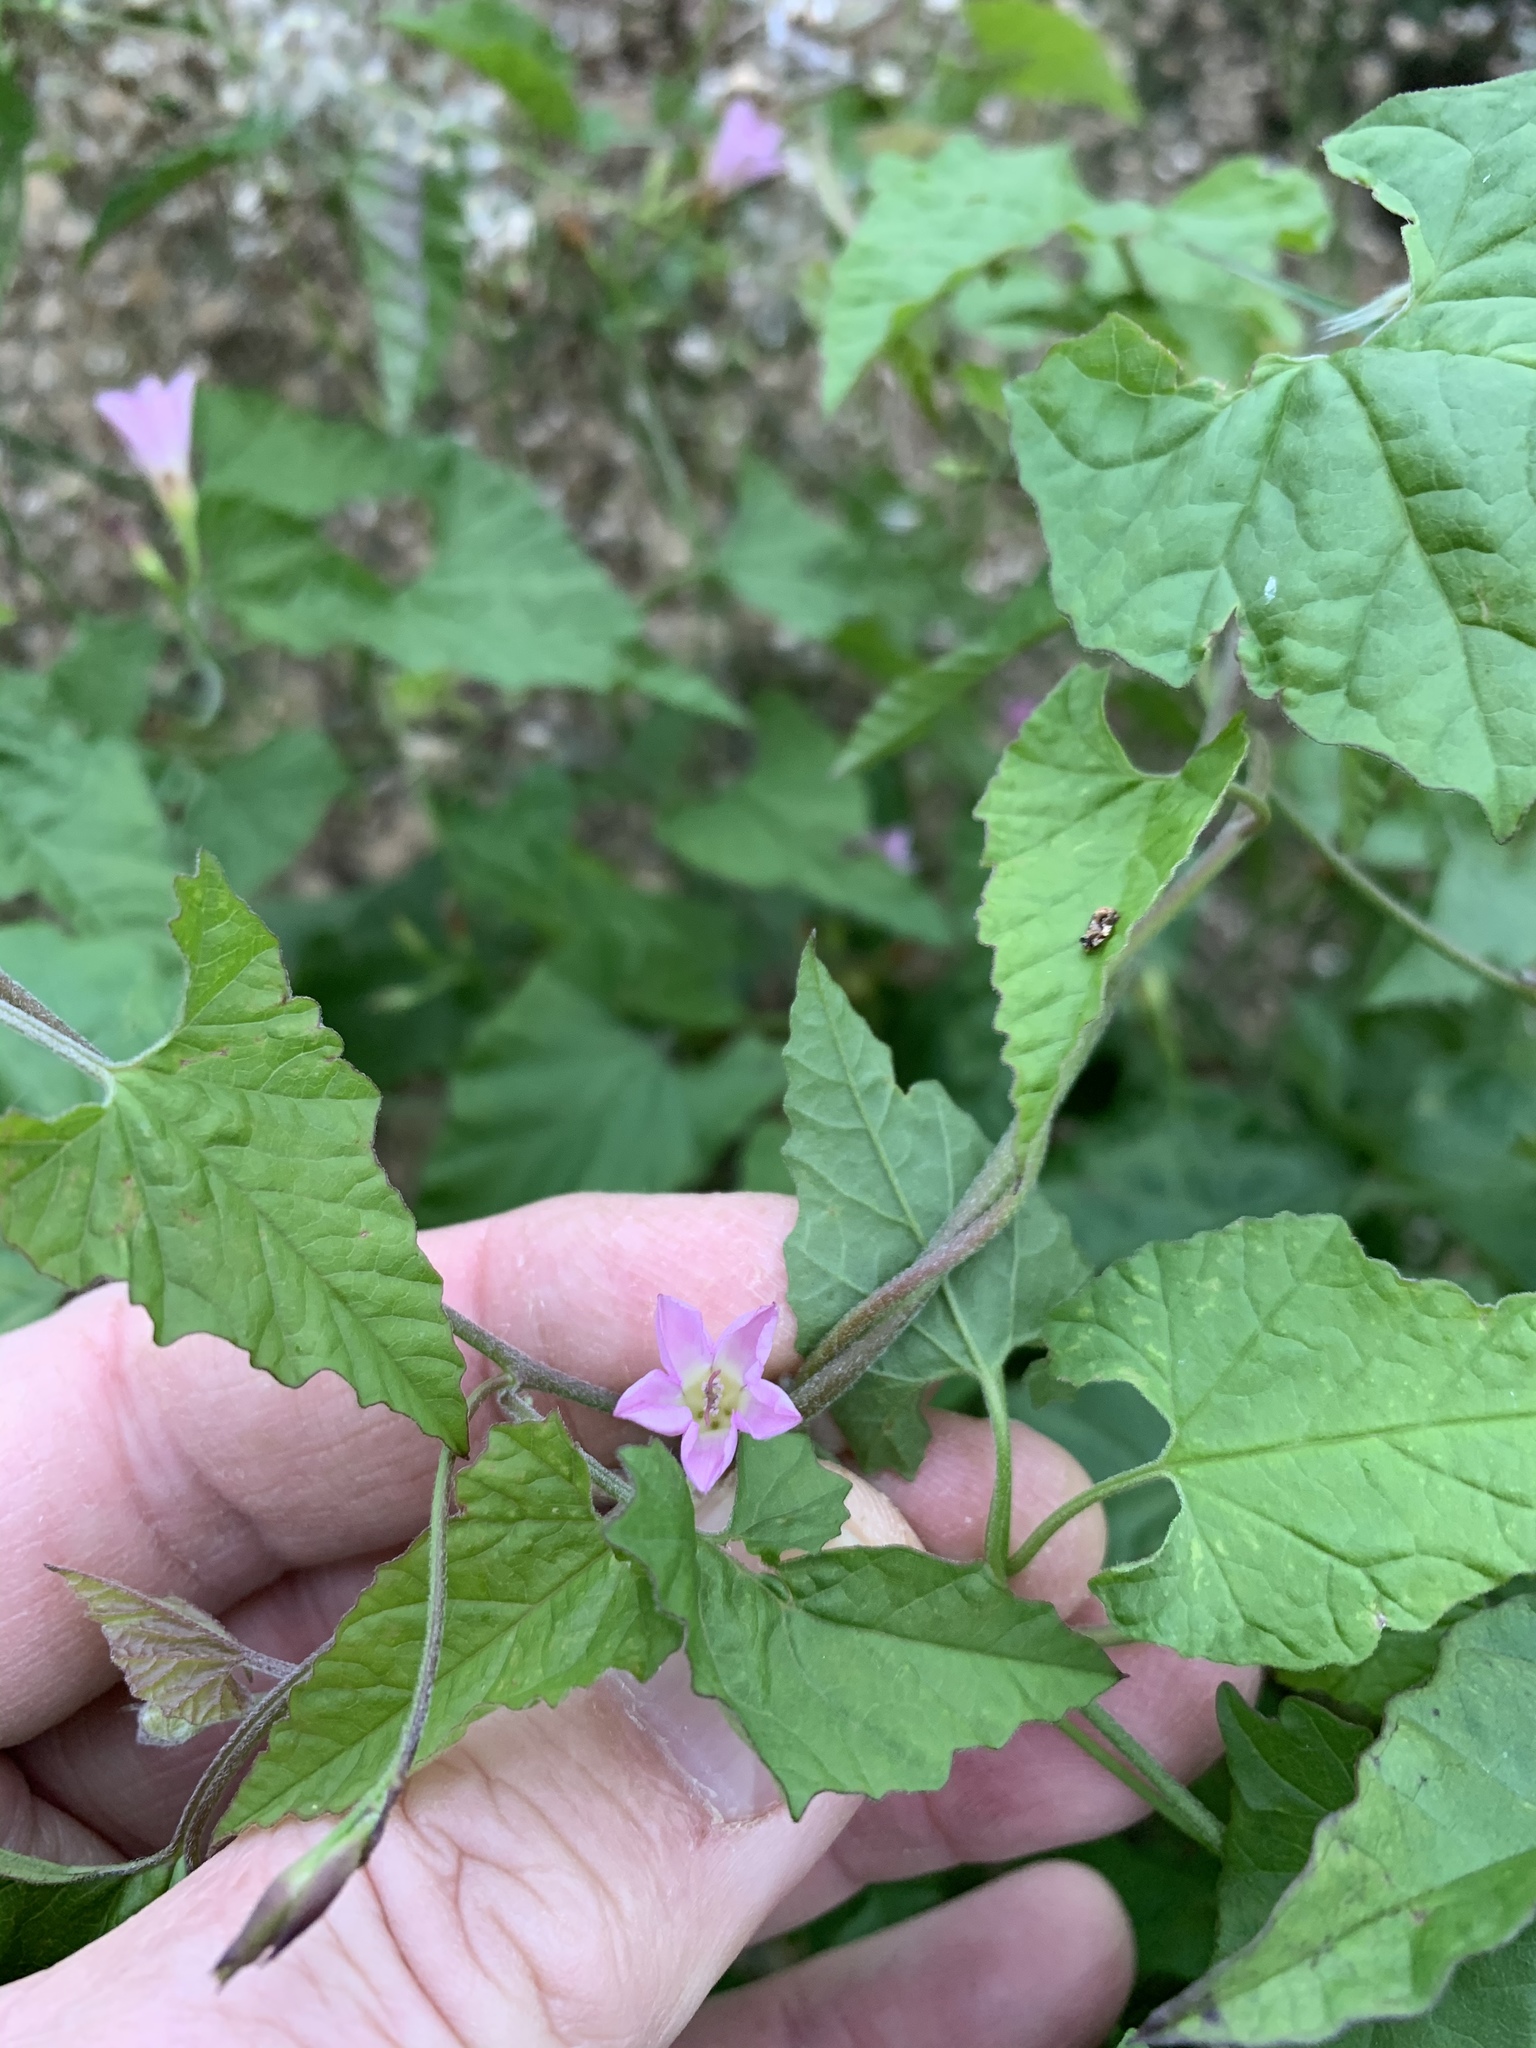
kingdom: Plantae
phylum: Tracheophyta
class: Magnoliopsida
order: Solanales
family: Convolvulaceae
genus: Convolvulus
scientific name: Convolvulus farinosus
